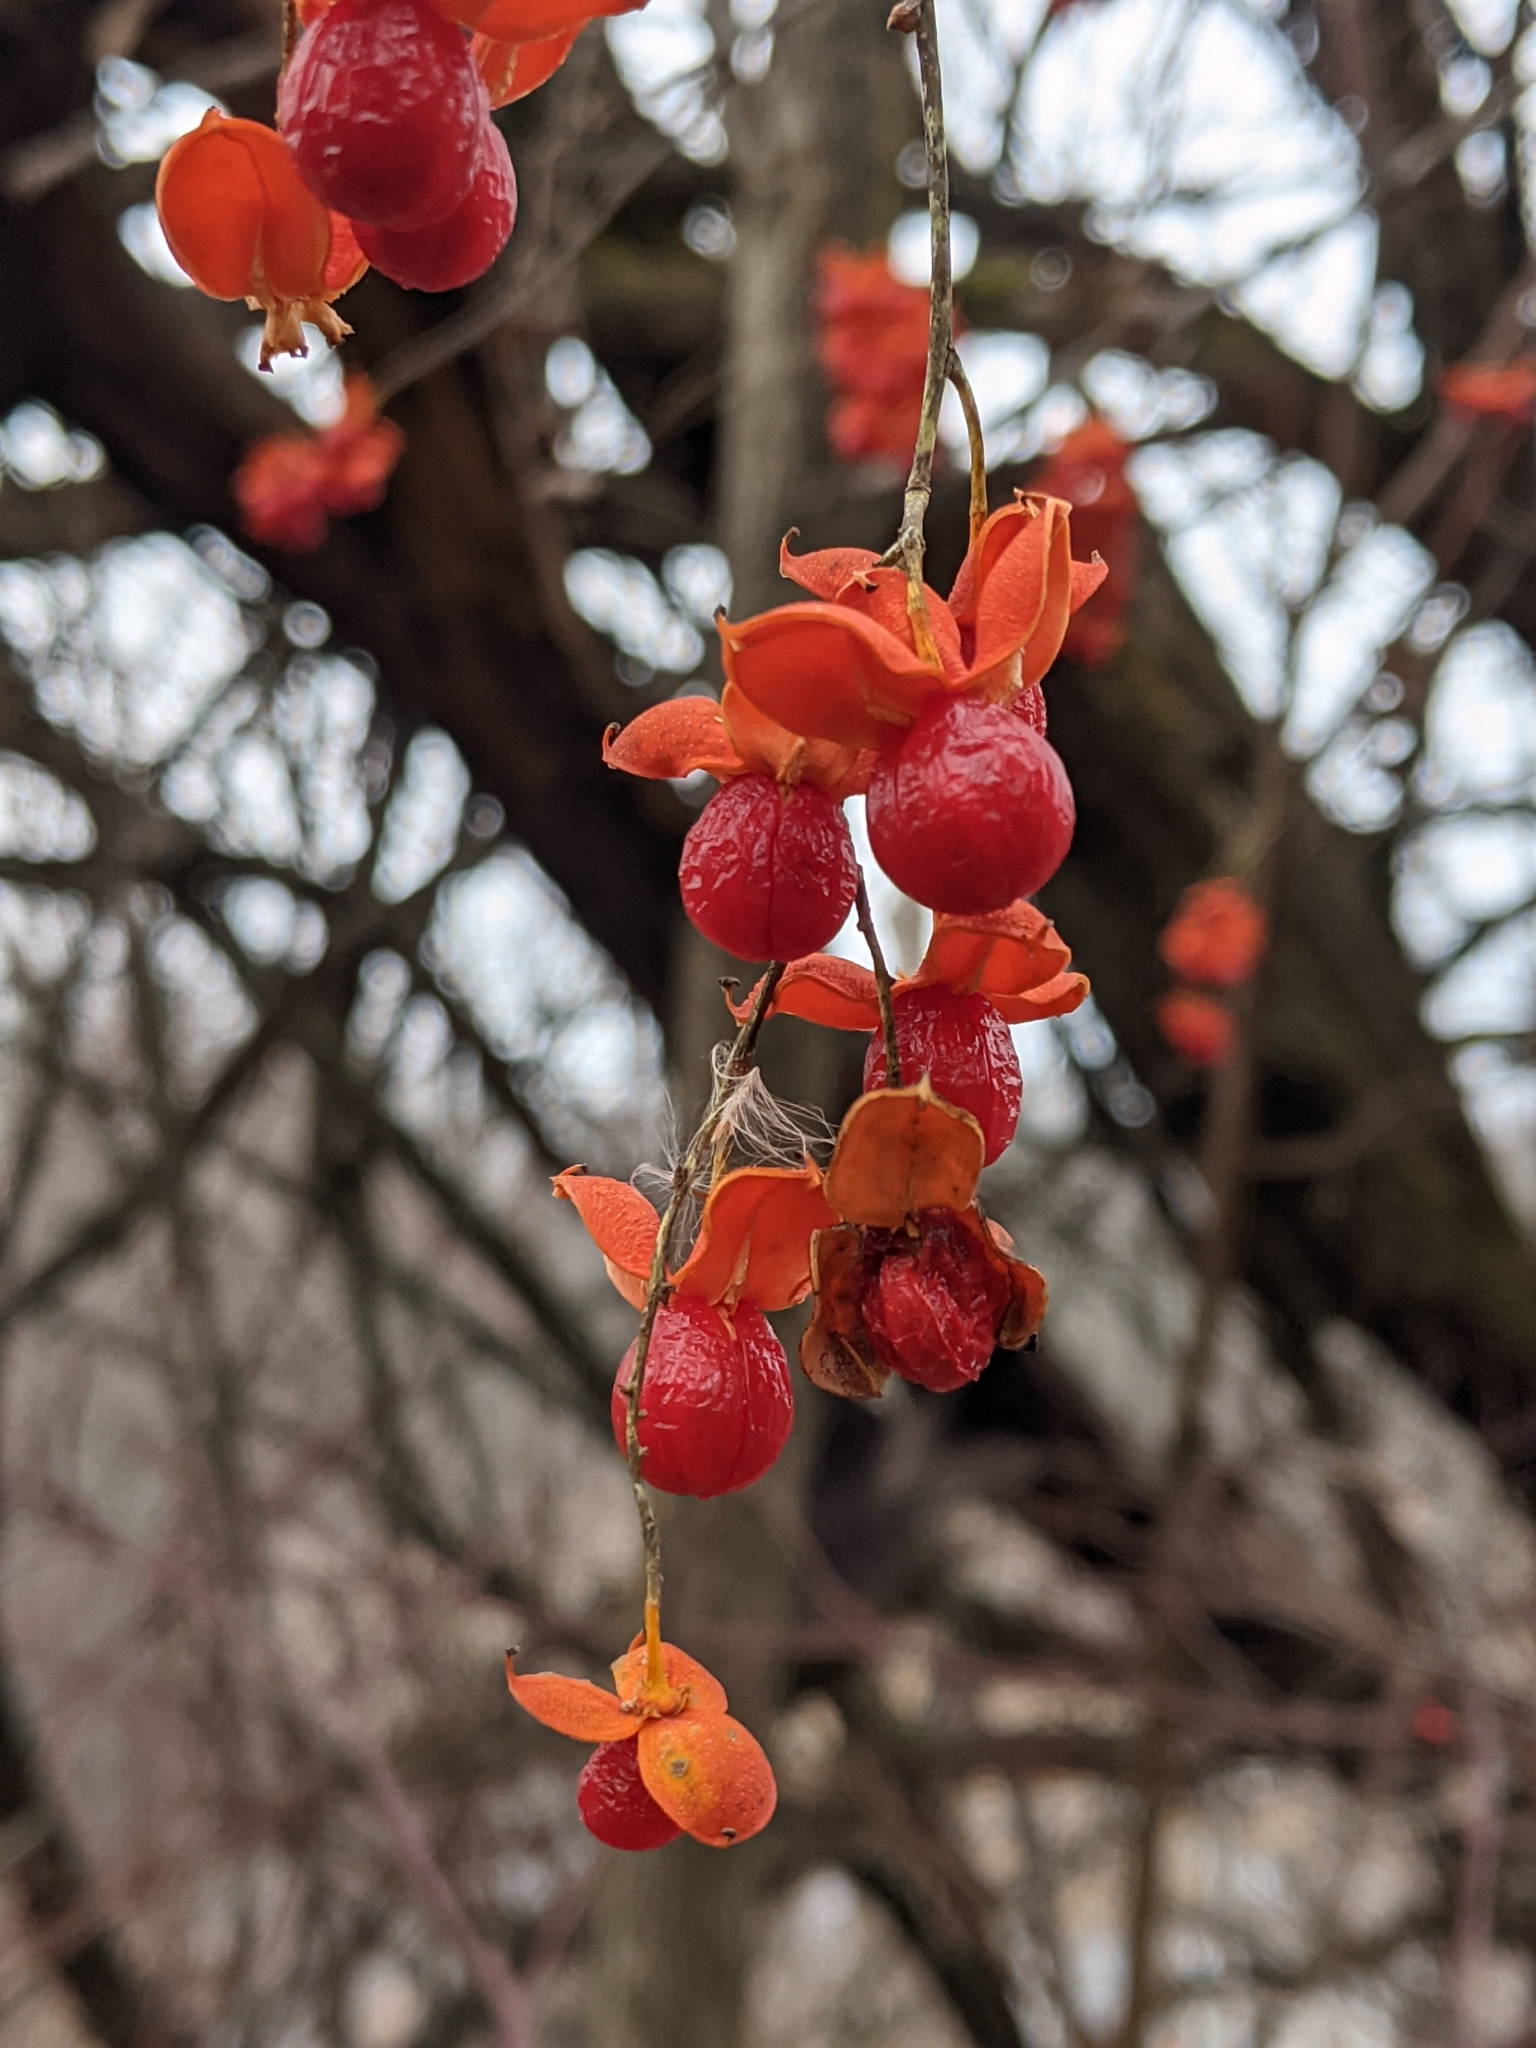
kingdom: Plantae
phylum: Tracheophyta
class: Magnoliopsida
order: Celastrales
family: Celastraceae
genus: Celastrus
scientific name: Celastrus scandens
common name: American bittersweet
